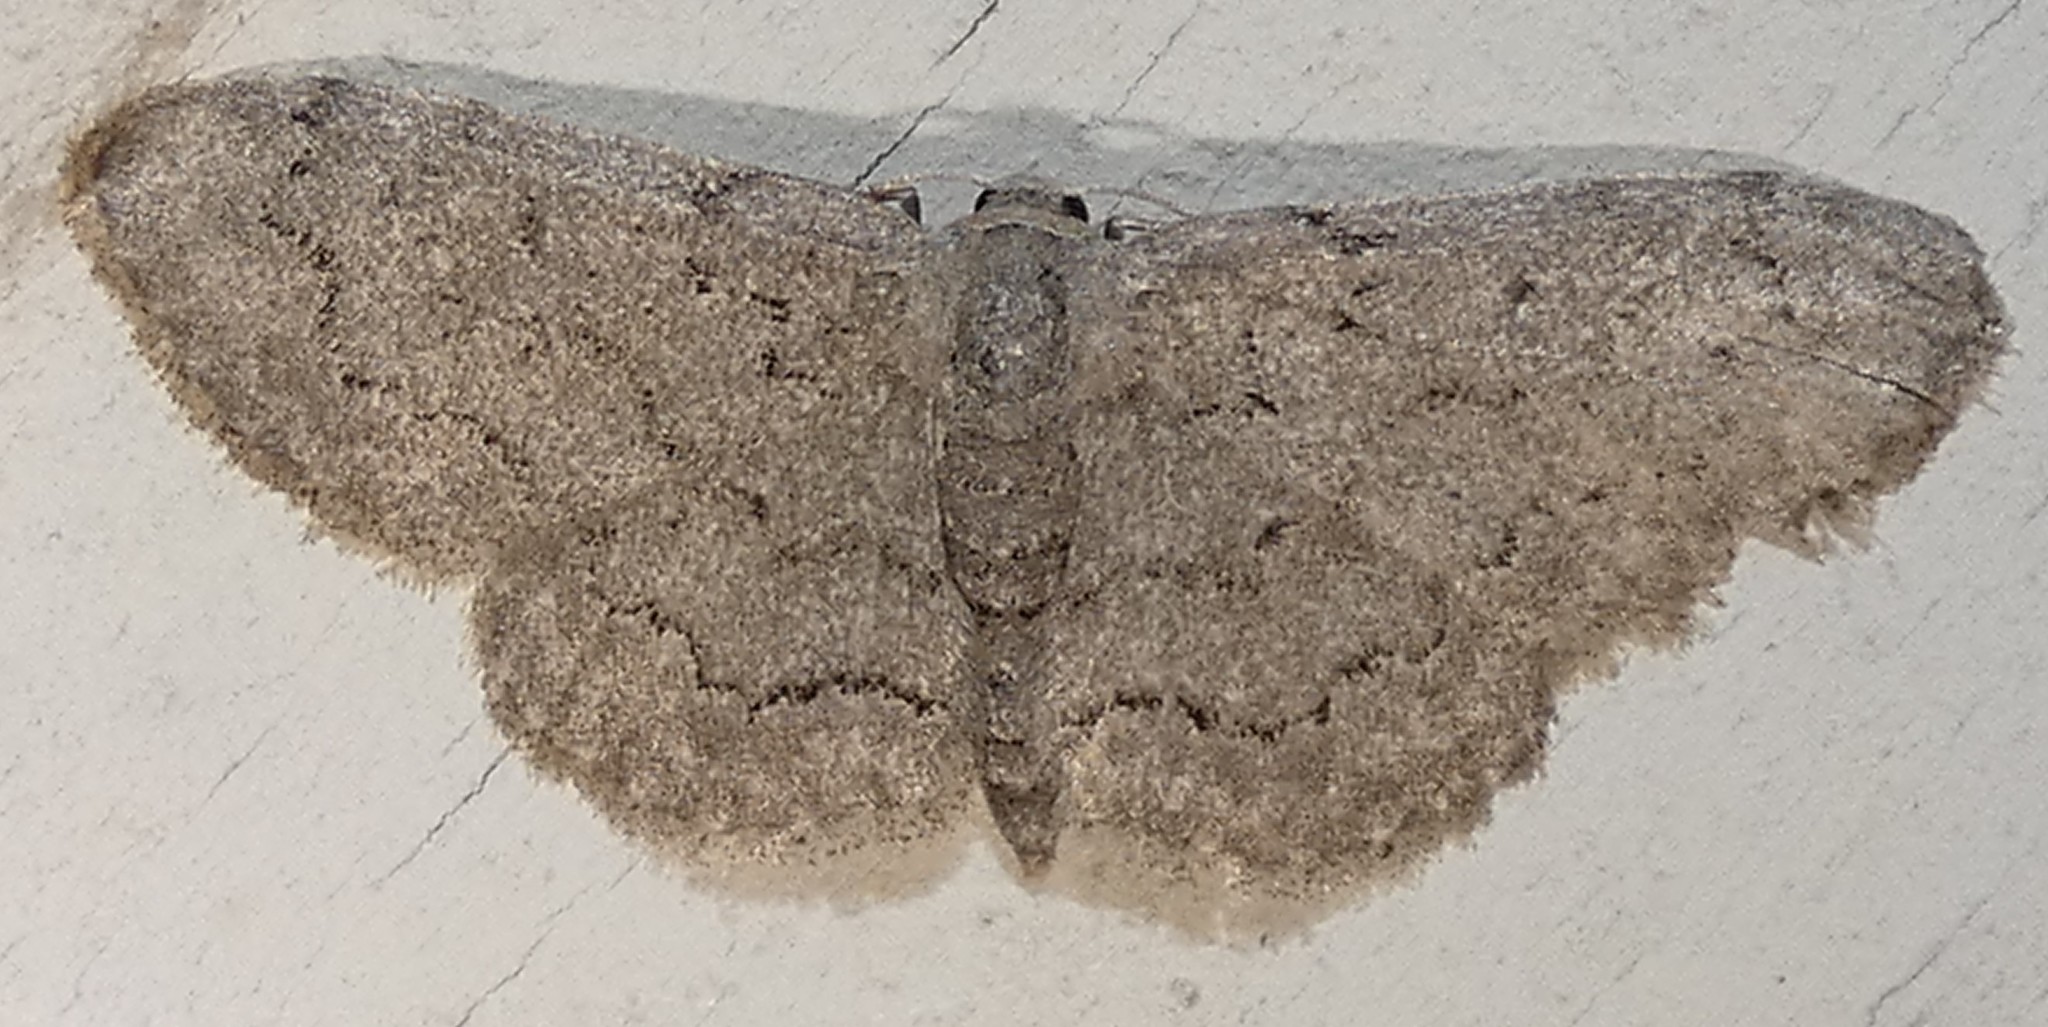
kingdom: Animalia
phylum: Arthropoda
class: Insecta
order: Lepidoptera
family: Geometridae
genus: Idaea
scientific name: Idaea violacearia
